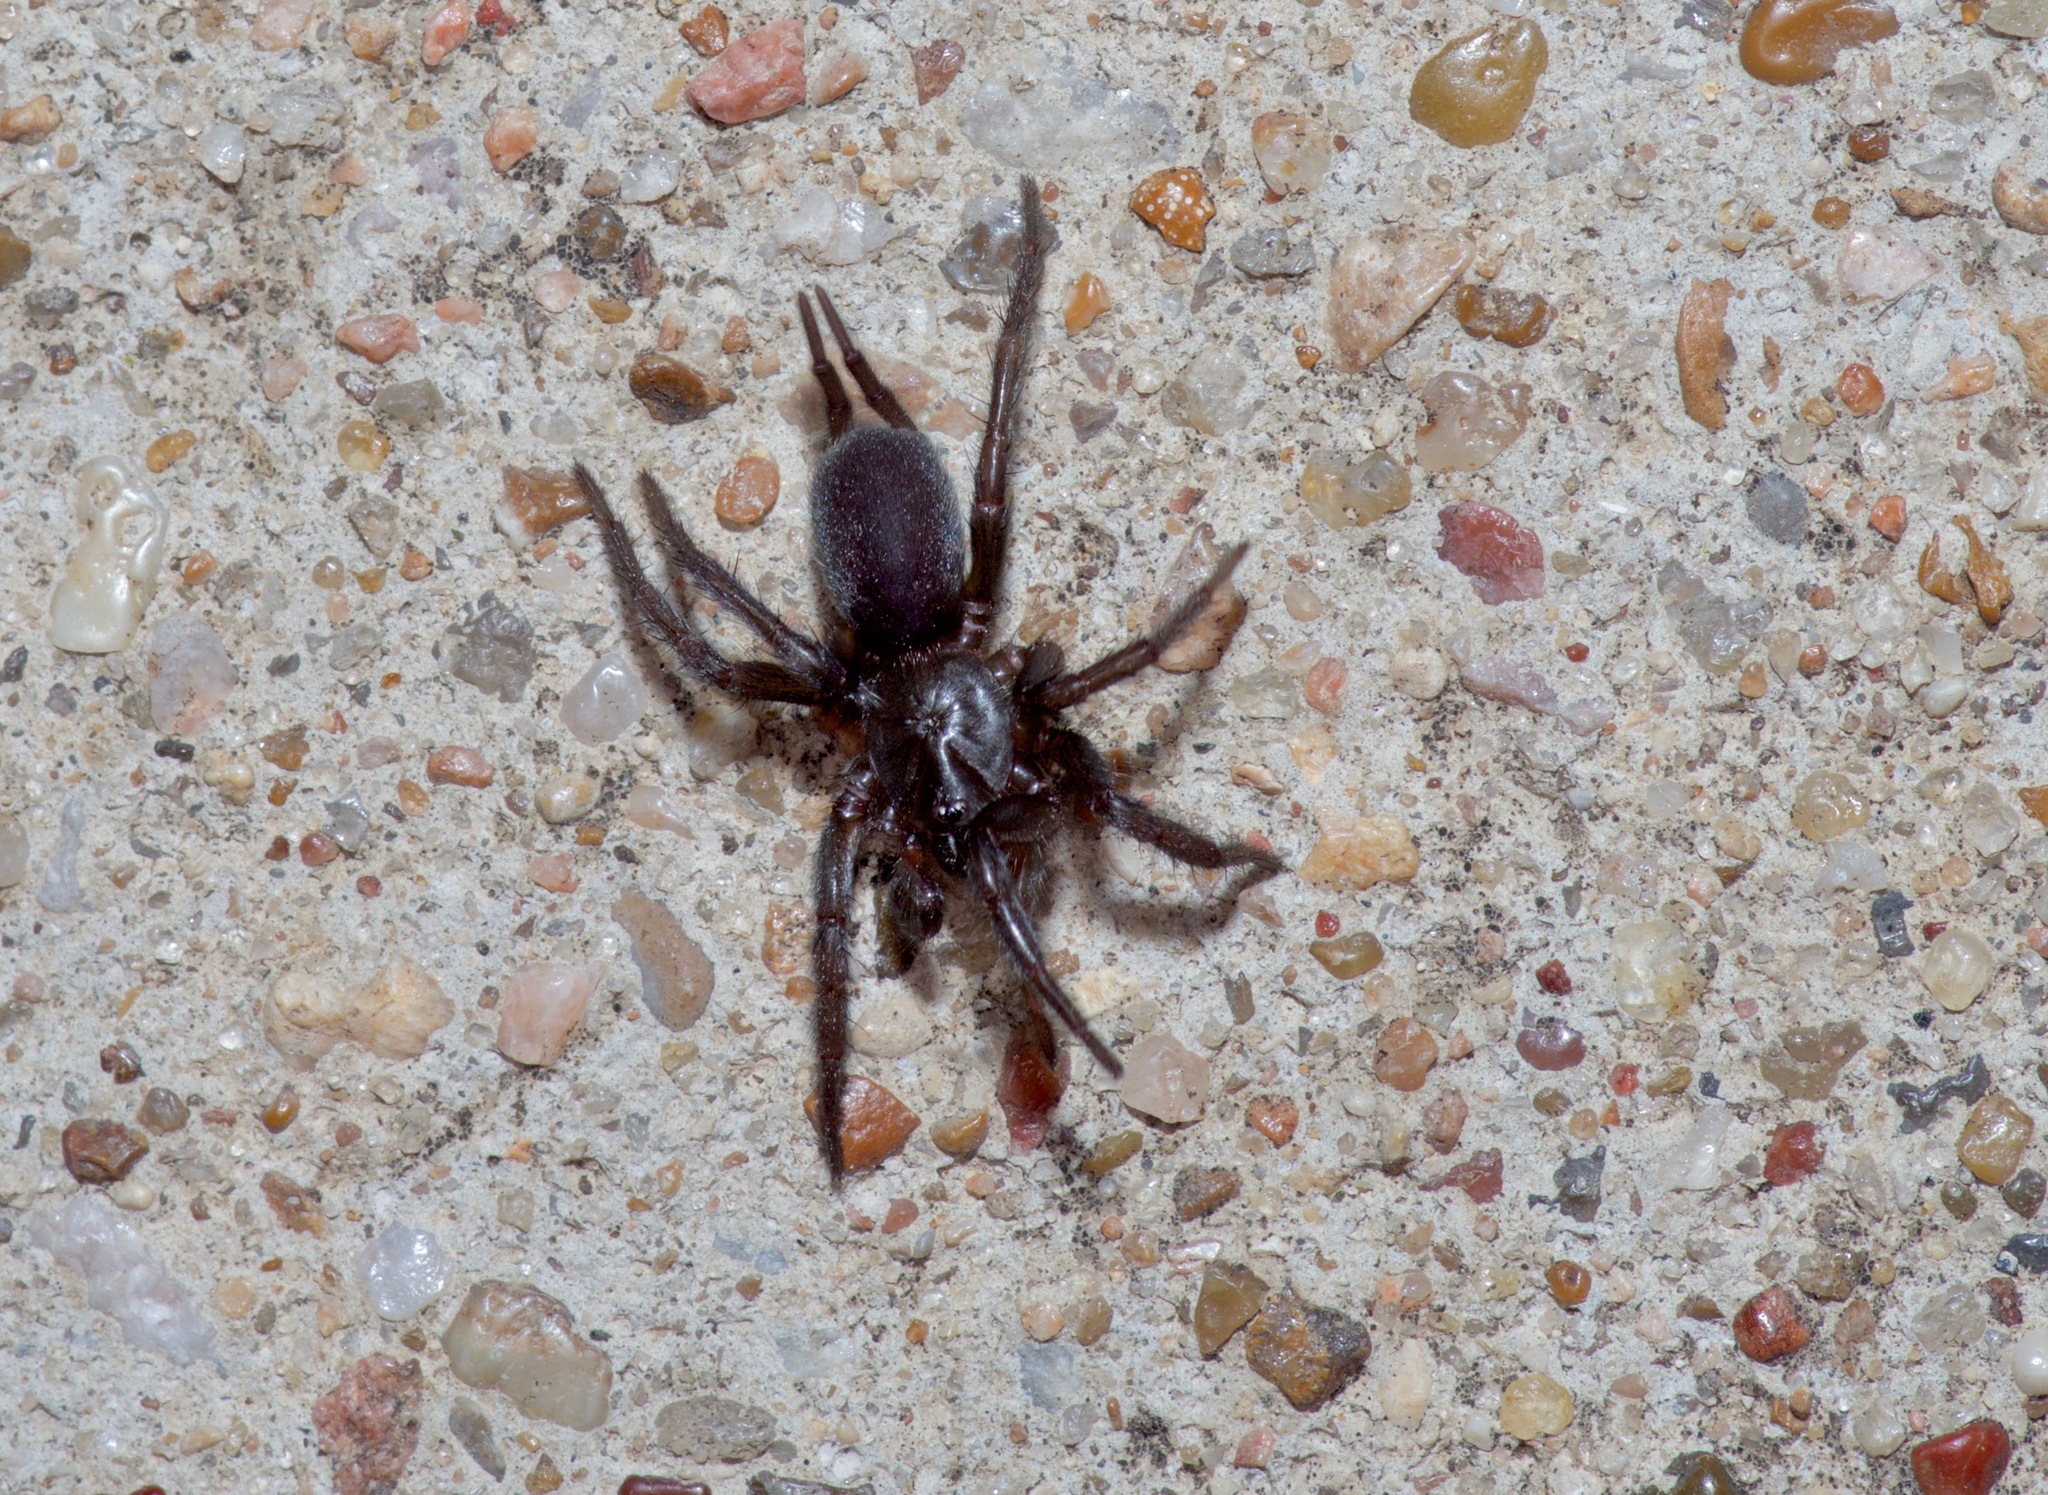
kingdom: Animalia
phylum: Arthropoda
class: Arachnida
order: Araneae
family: Euagridae
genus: Euagrus
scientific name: Euagrus chisoseus
